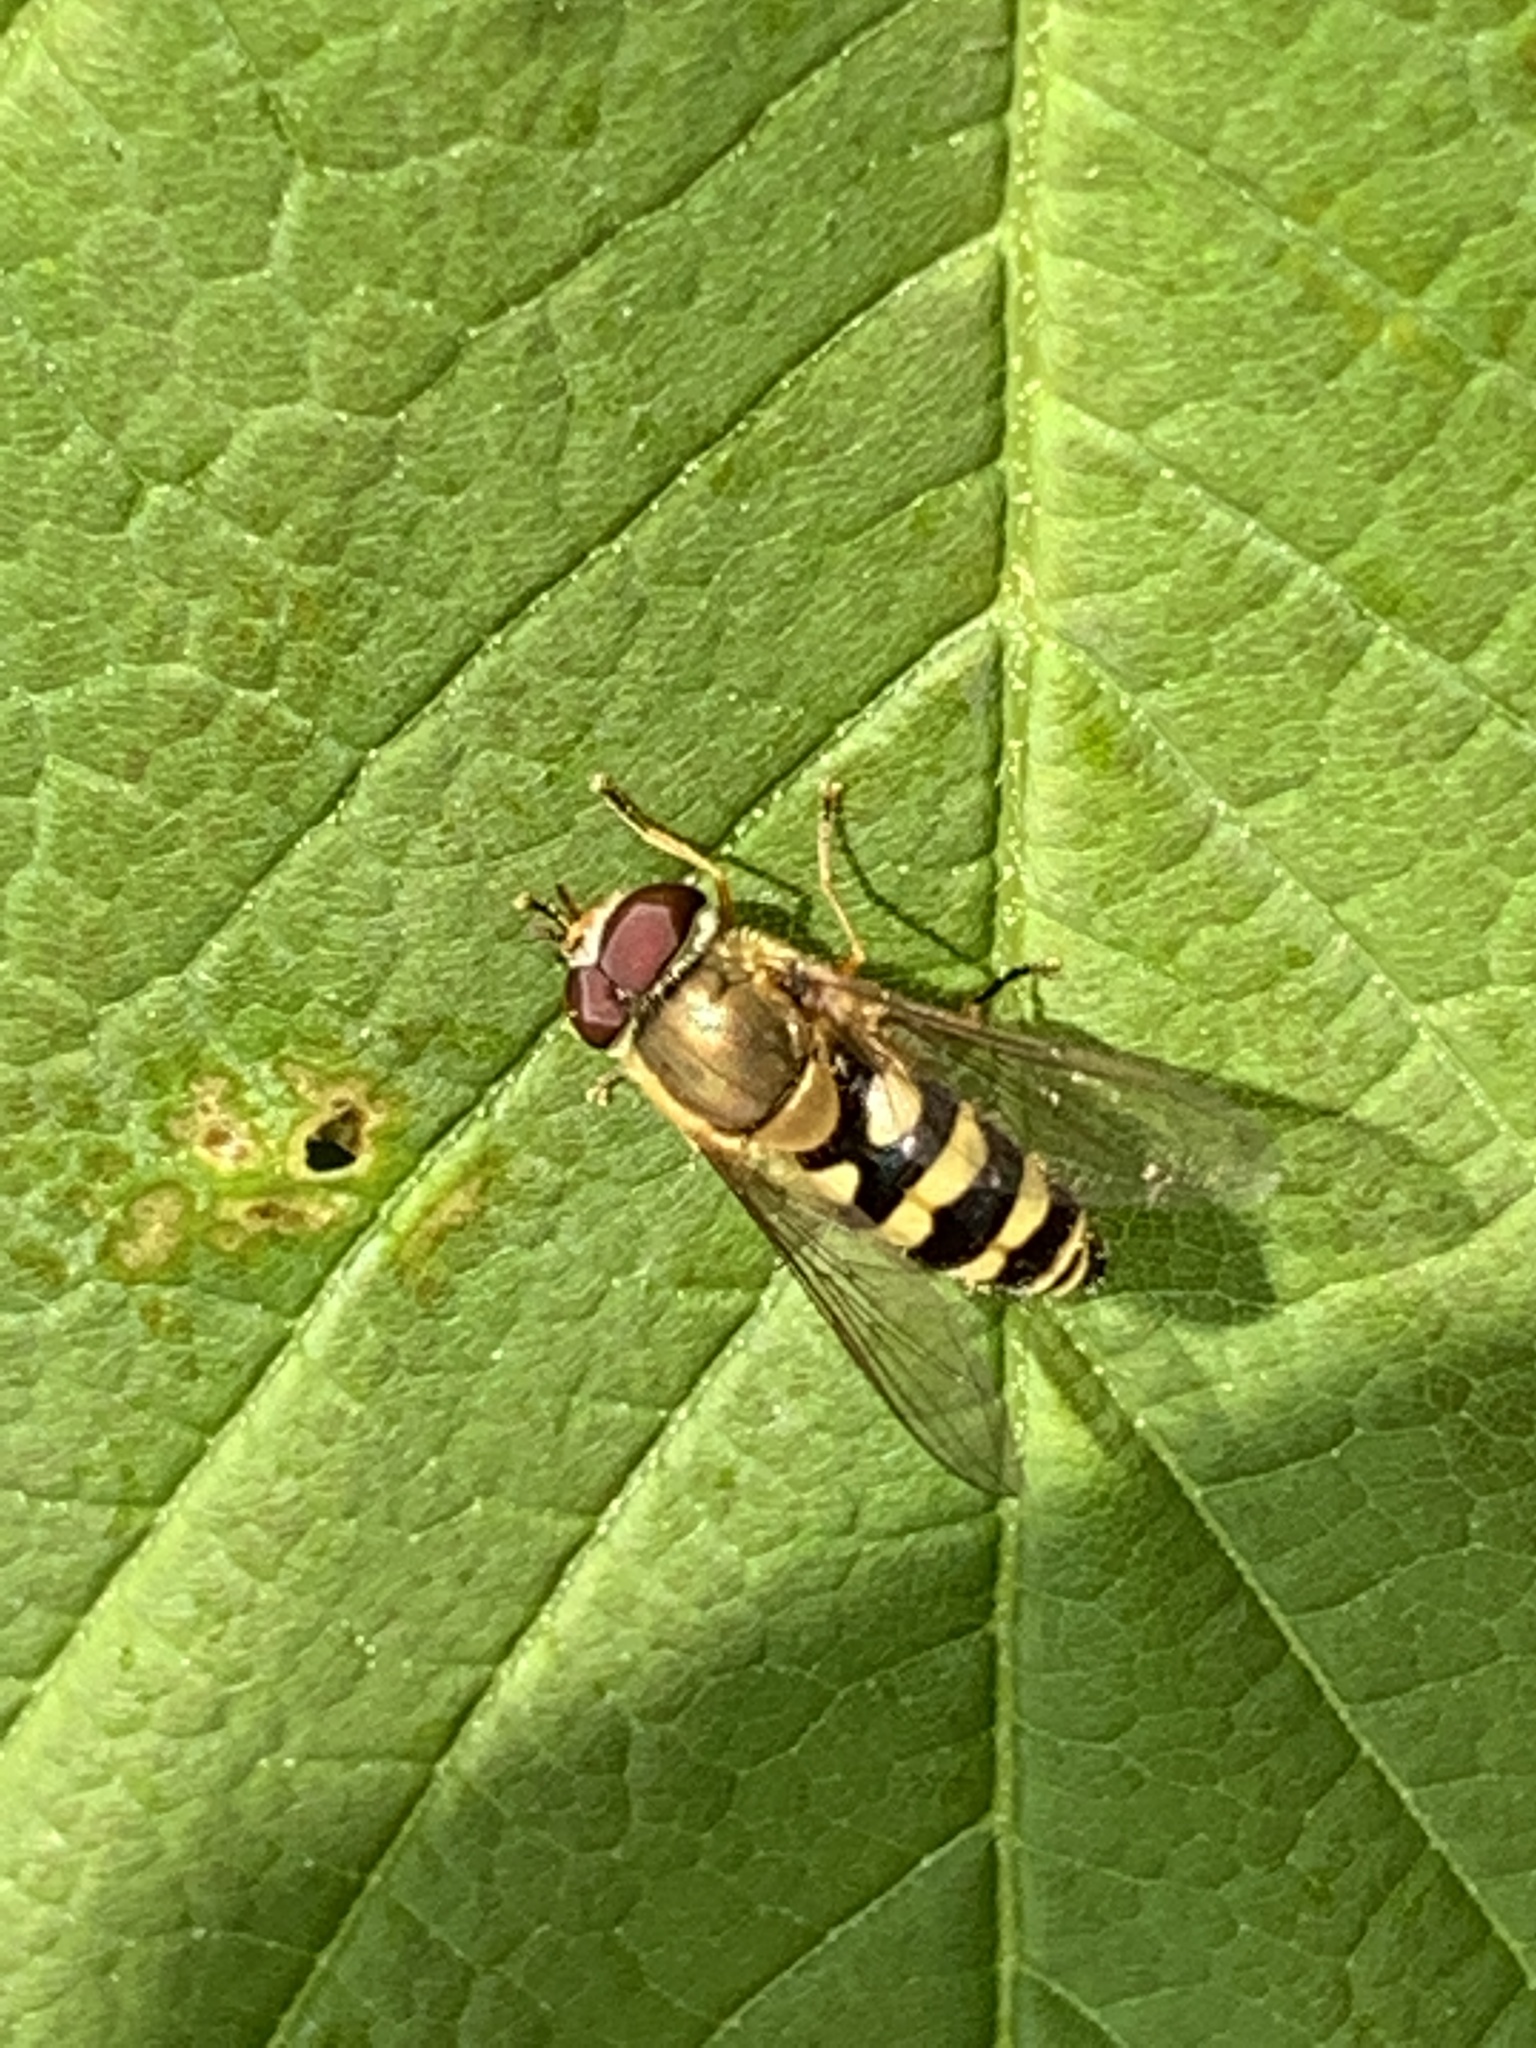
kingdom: Animalia
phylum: Arthropoda
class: Insecta
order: Diptera
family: Syrphidae
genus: Syrphus
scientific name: Syrphus
